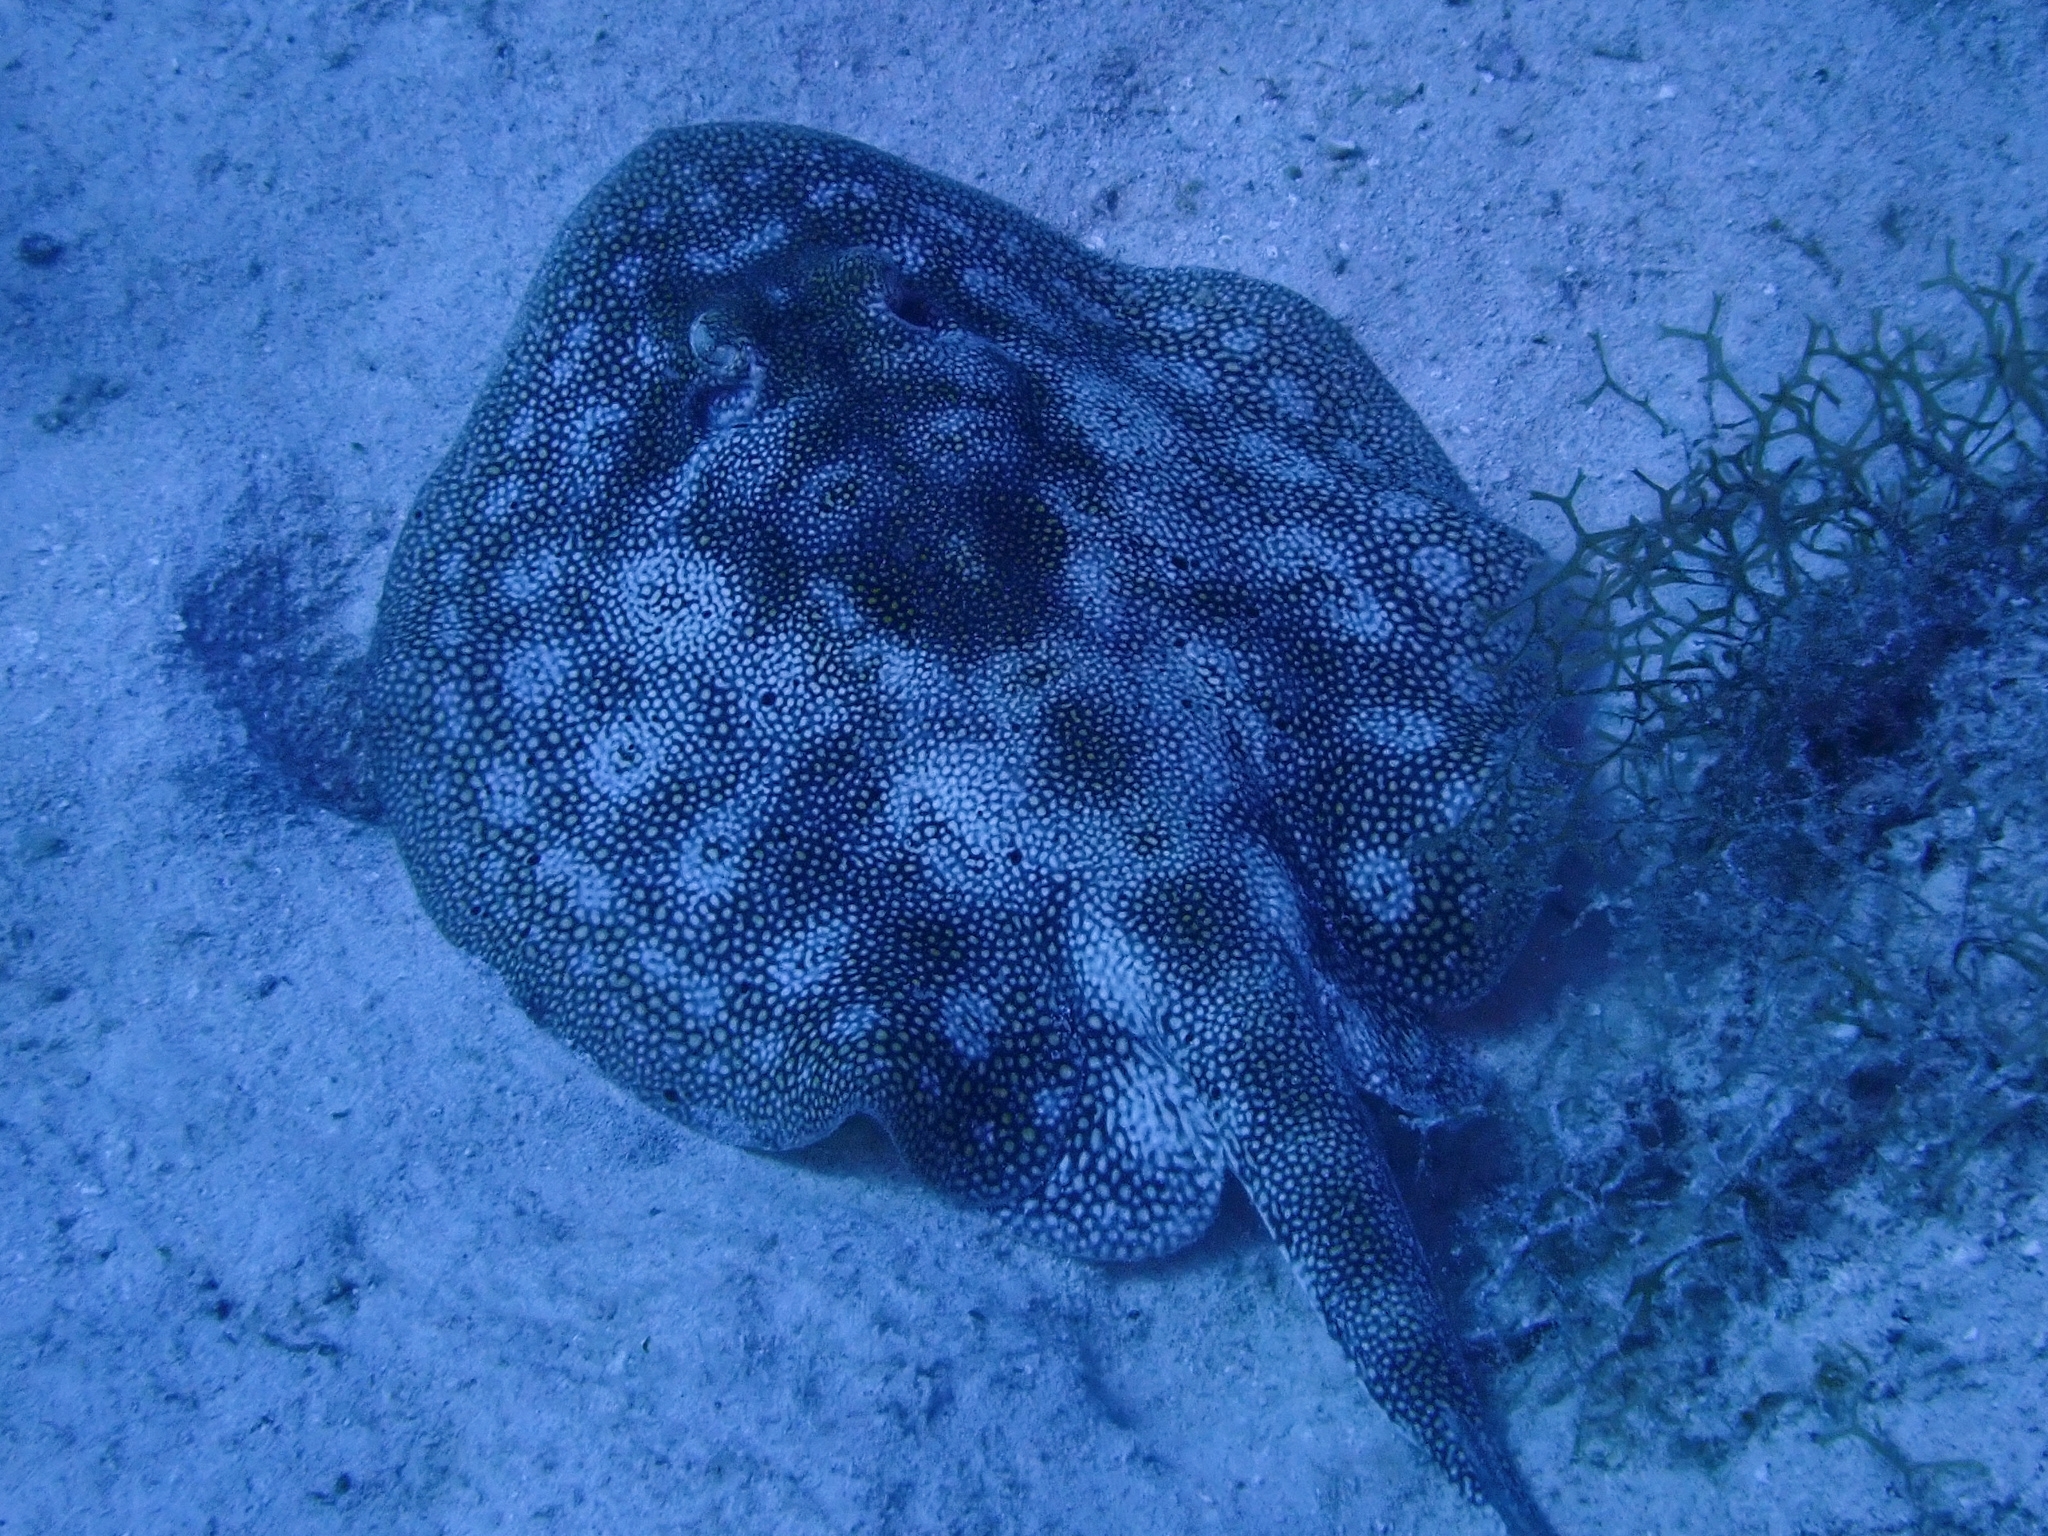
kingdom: Animalia
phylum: Chordata
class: Elasmobranchii
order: Myliobatiformes
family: Urotrygonidae
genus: Urobatis
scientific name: Urobatis jamaicensis
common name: Yellow stingray
